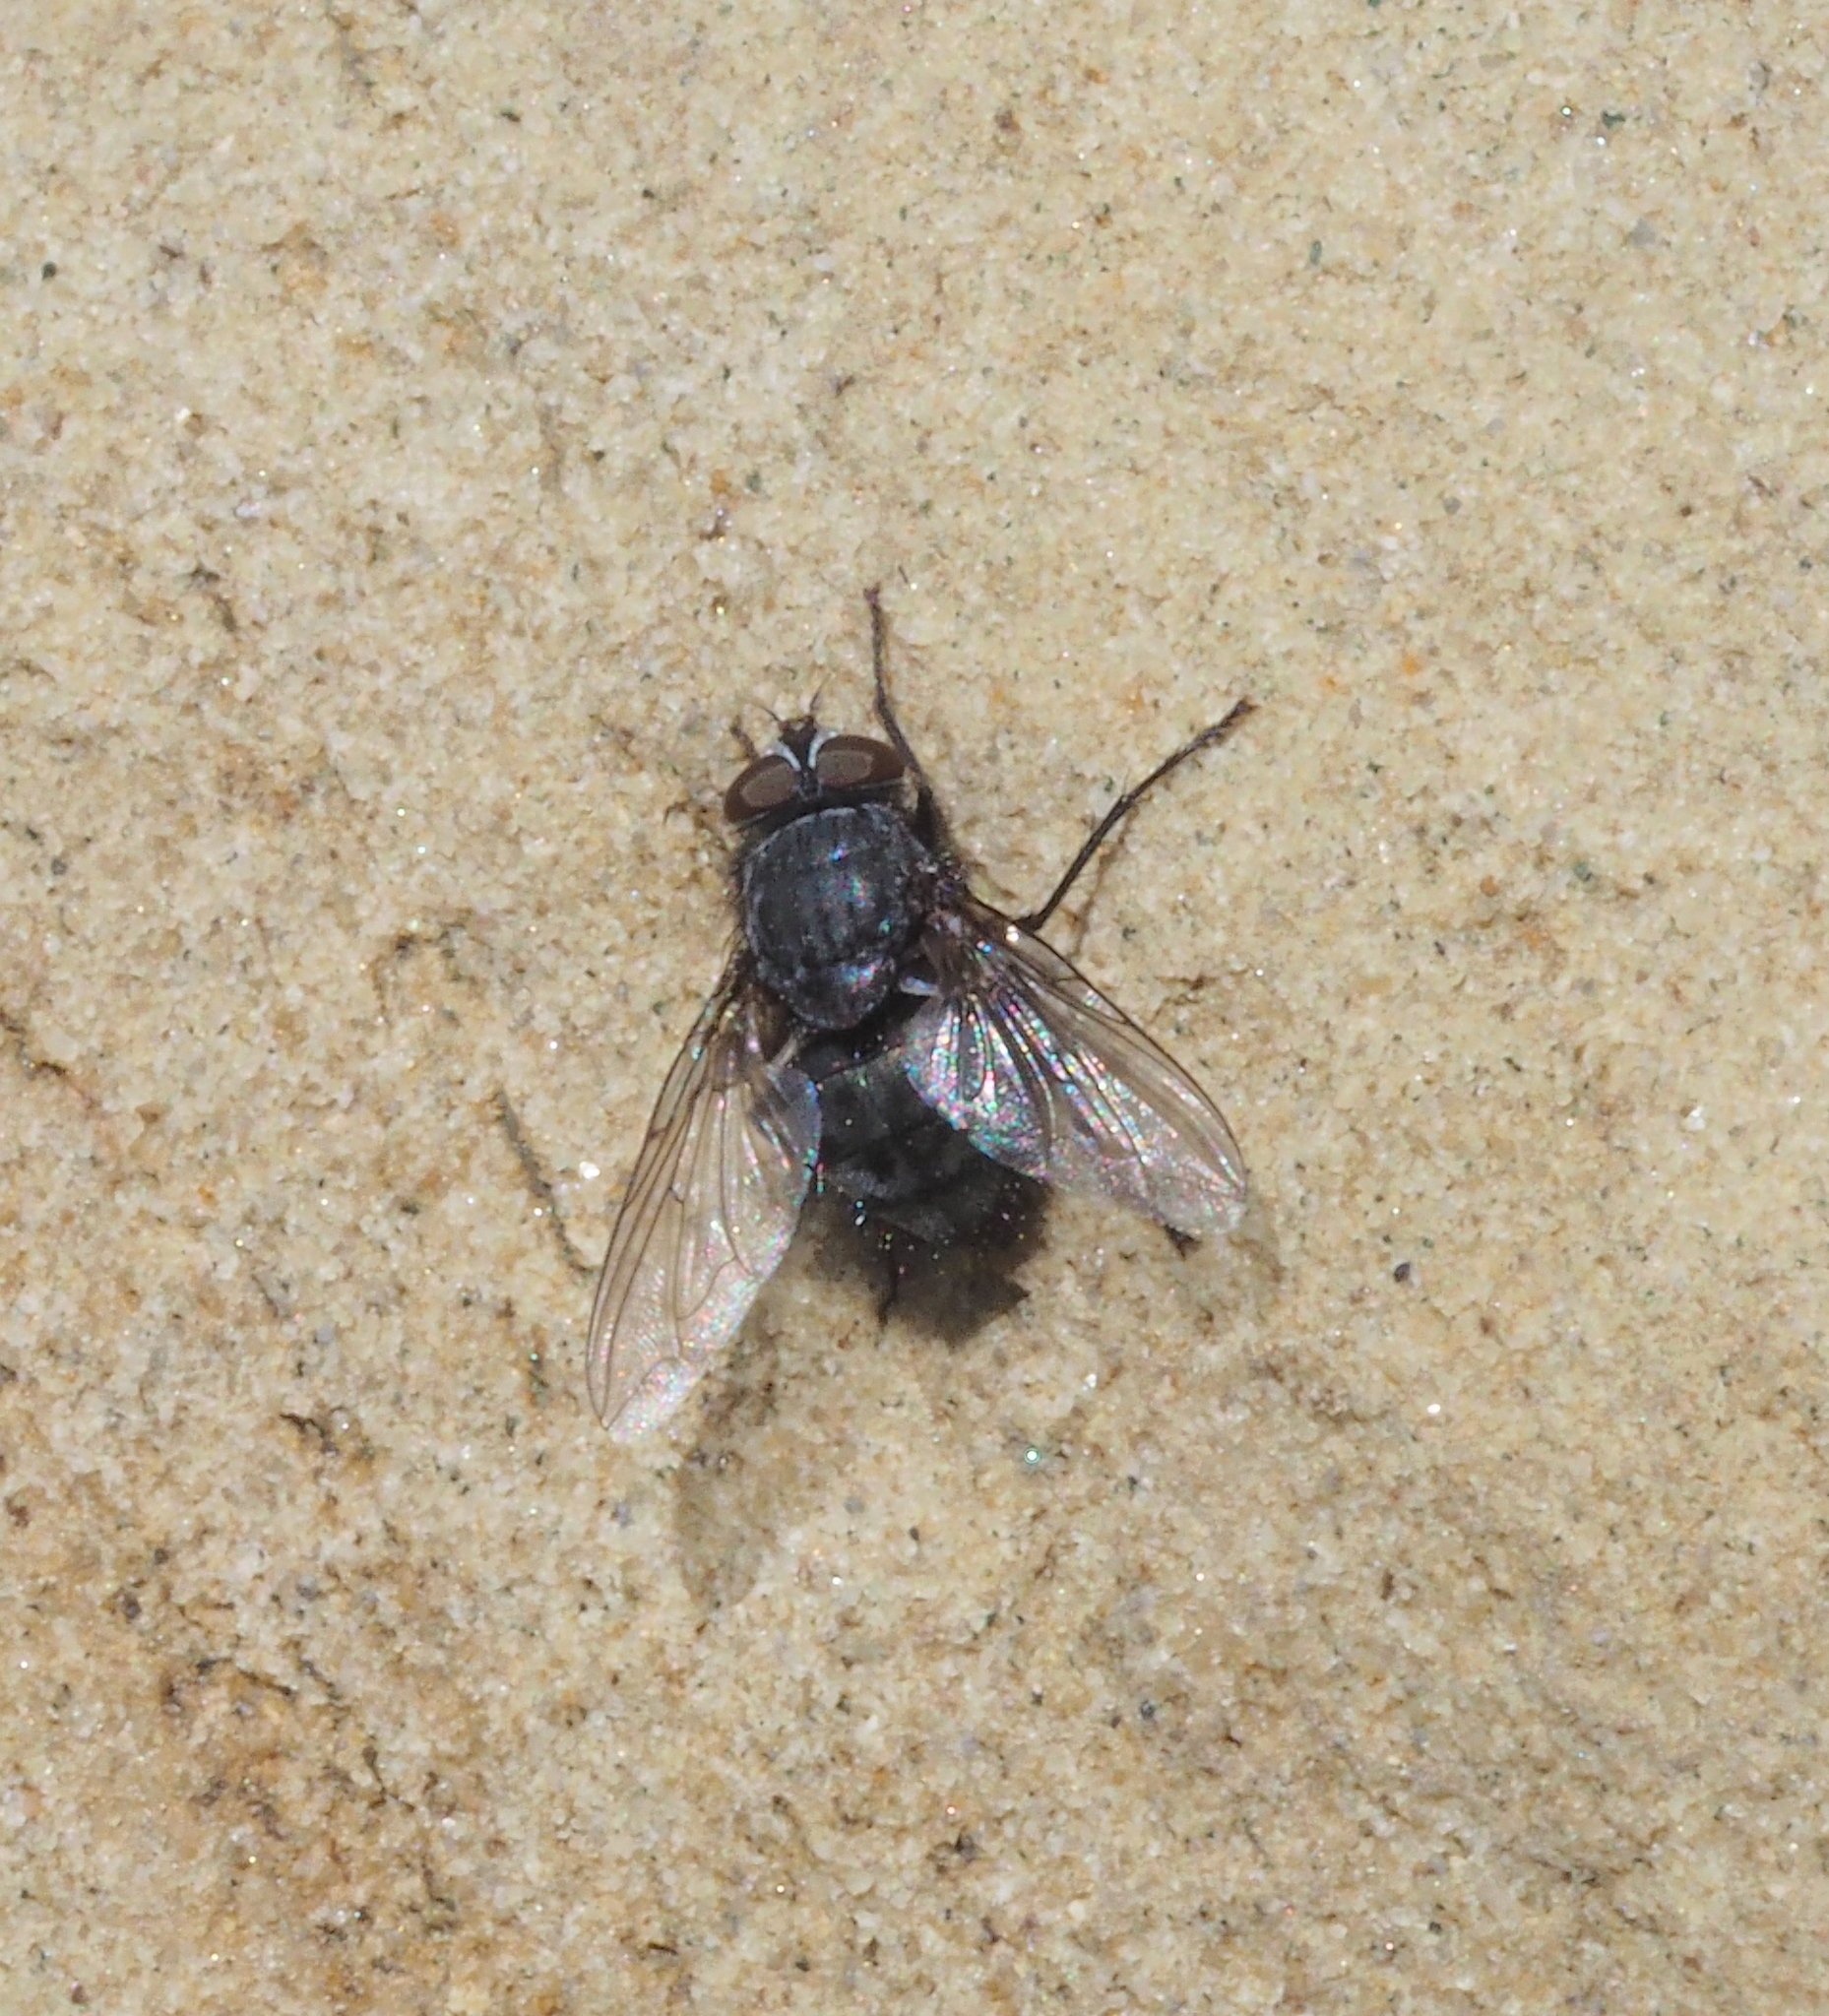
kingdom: Animalia
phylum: Arthropoda
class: Insecta
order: Diptera
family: Calliphoridae
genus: Calliphora
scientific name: Calliphora vicina
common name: Common blow flie
